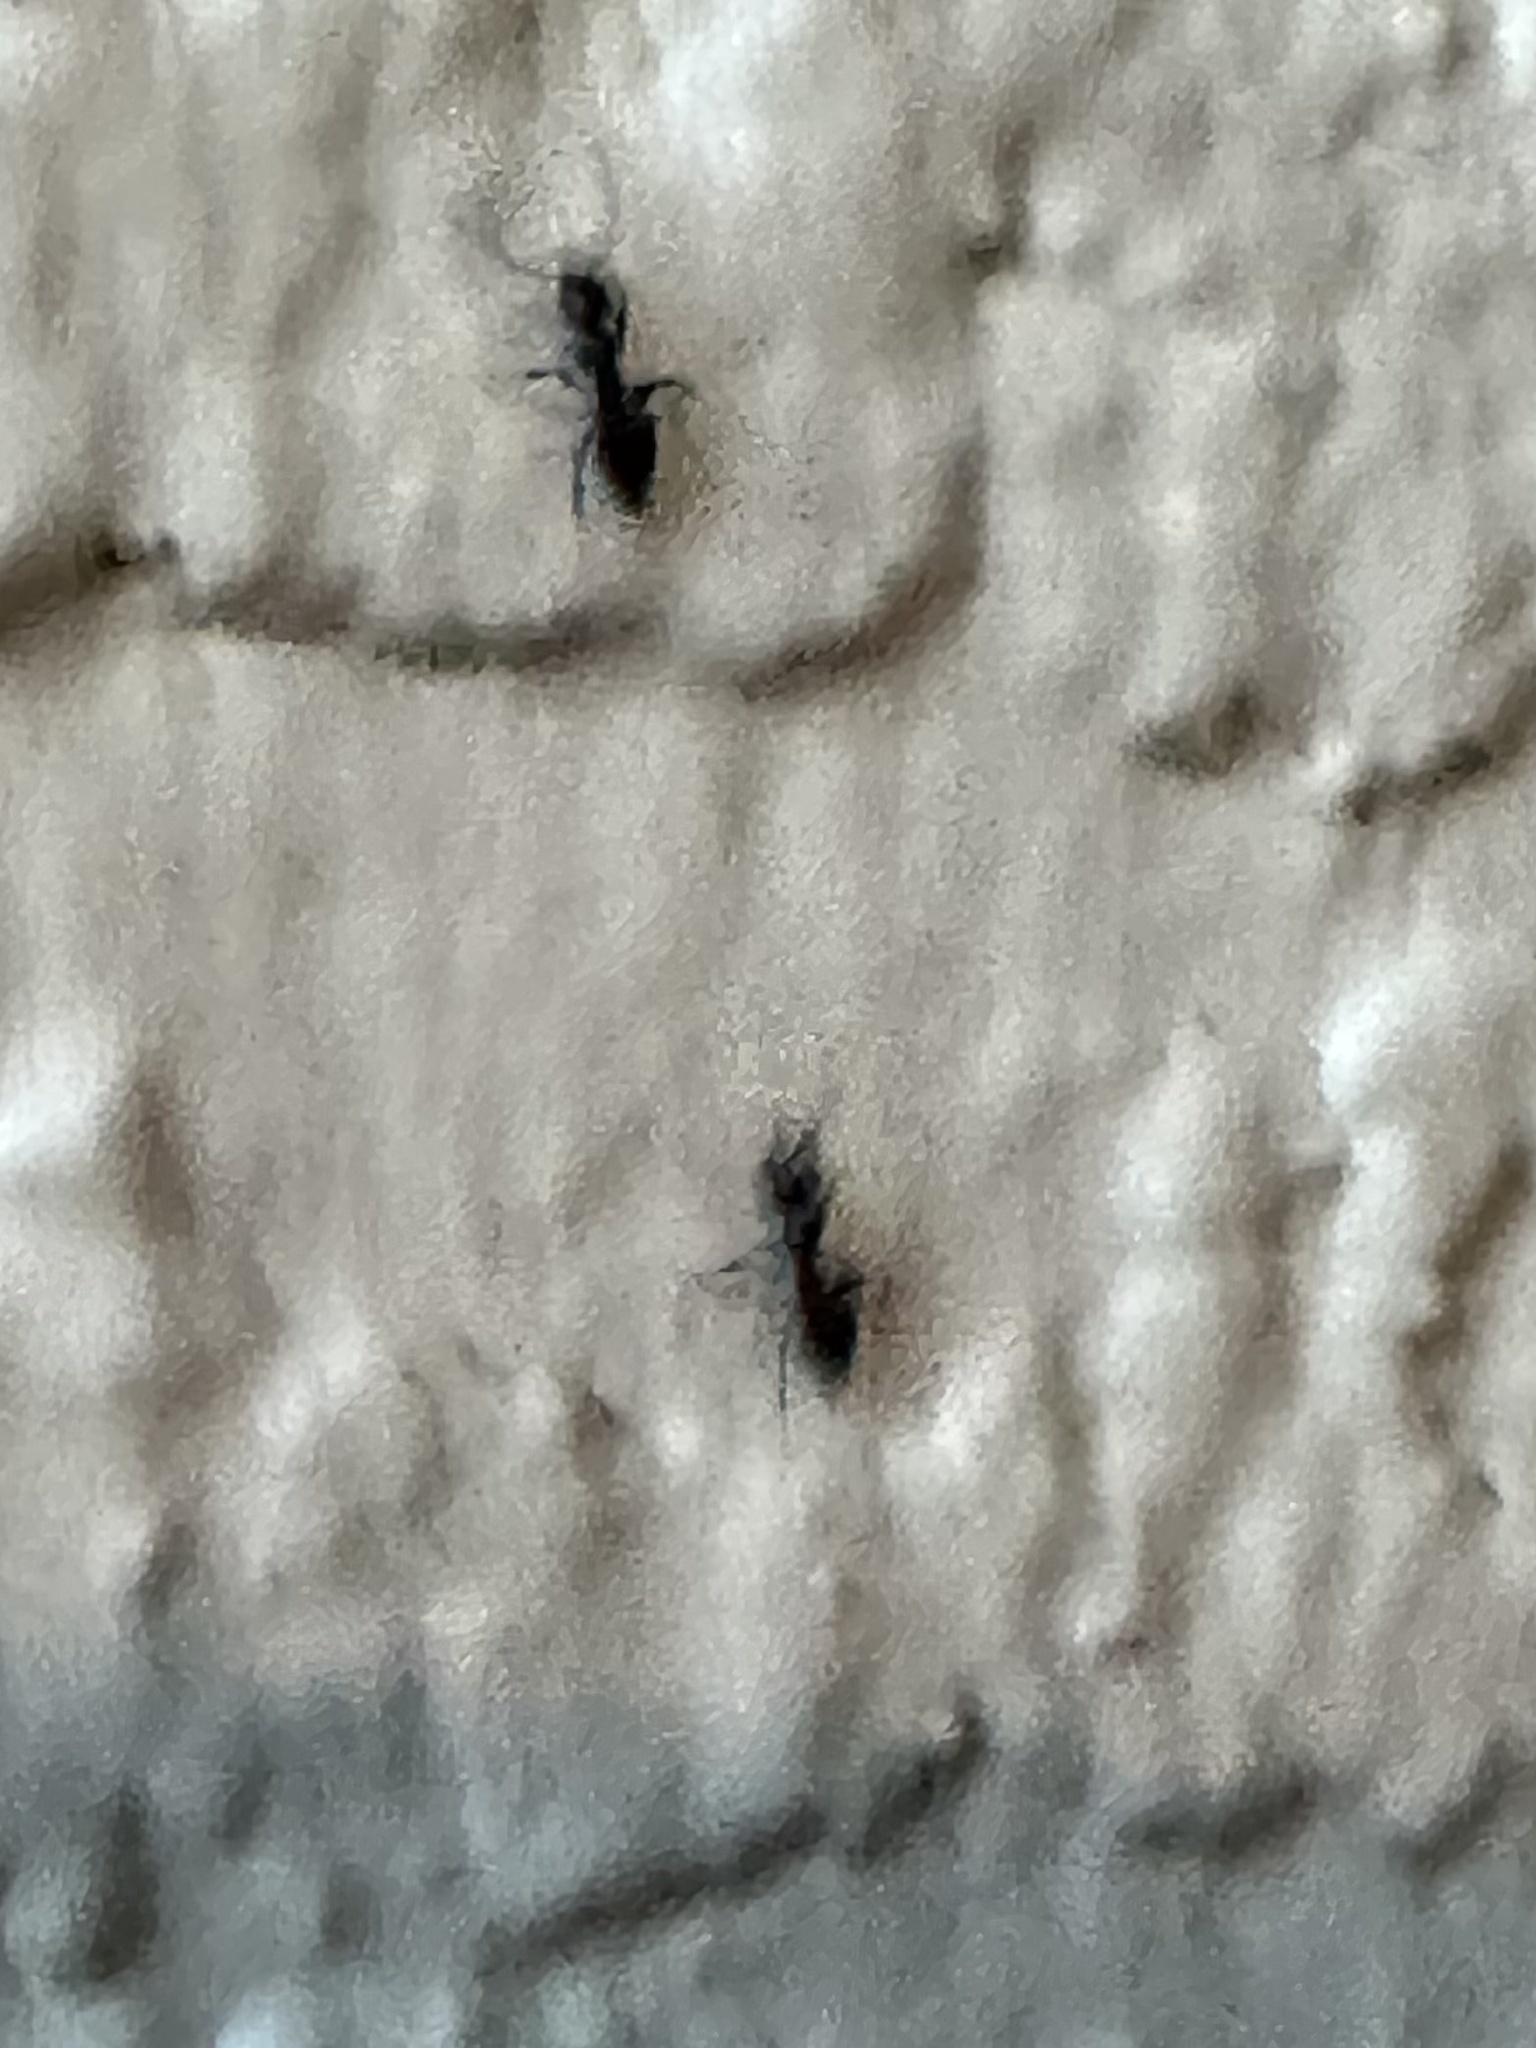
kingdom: Animalia
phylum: Arthropoda
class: Insecta
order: Hymenoptera
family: Formicidae
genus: Technomyrmex
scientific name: Technomyrmex difficilis
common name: Ant
